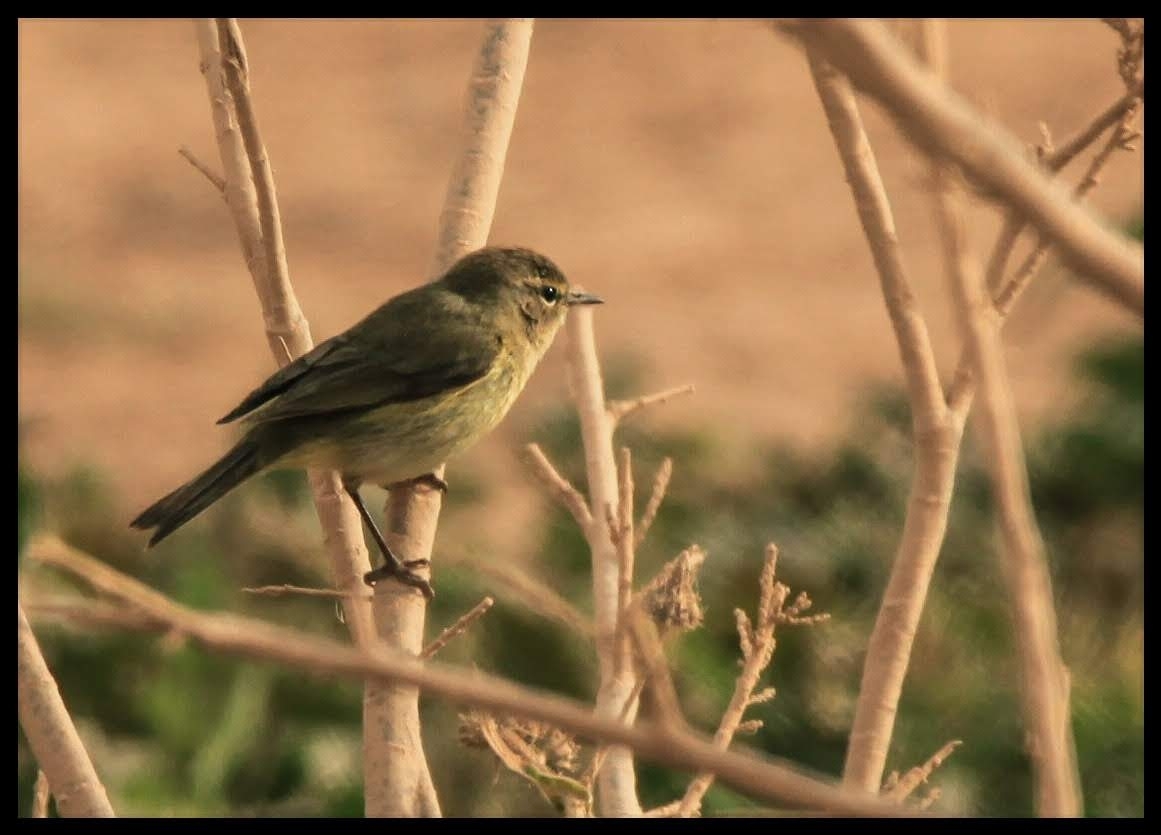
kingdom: Animalia
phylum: Chordata
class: Aves
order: Passeriformes
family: Phylloscopidae
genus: Phylloscopus
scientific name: Phylloscopus collybita
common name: Common chiffchaff
